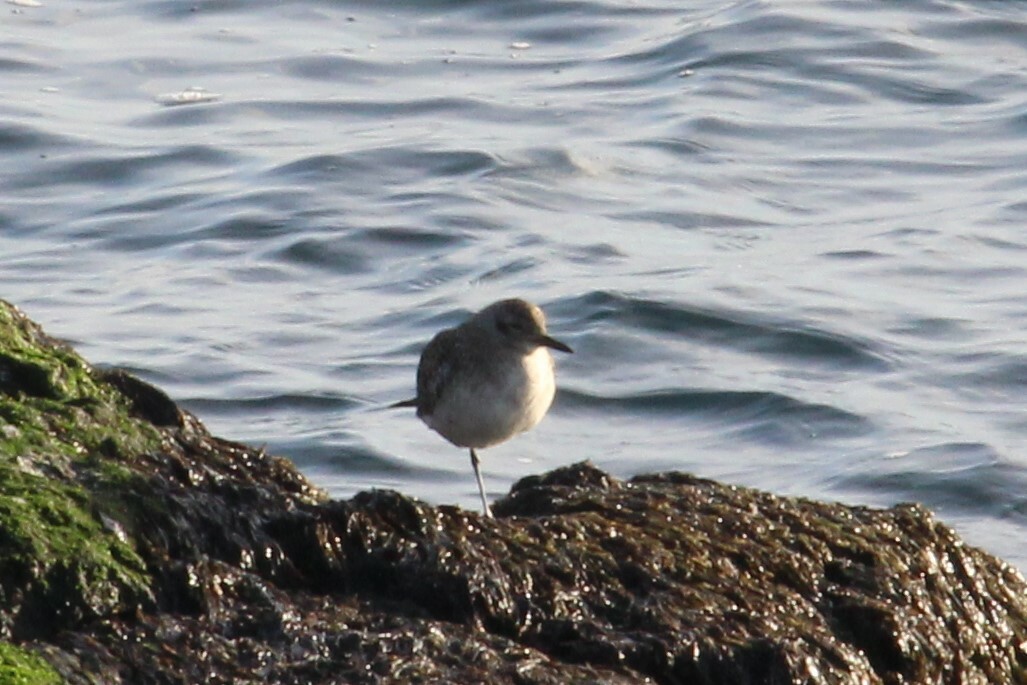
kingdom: Animalia
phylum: Chordata
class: Aves
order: Charadriiformes
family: Charadriidae
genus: Pluvialis
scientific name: Pluvialis squatarola
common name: Grey plover
